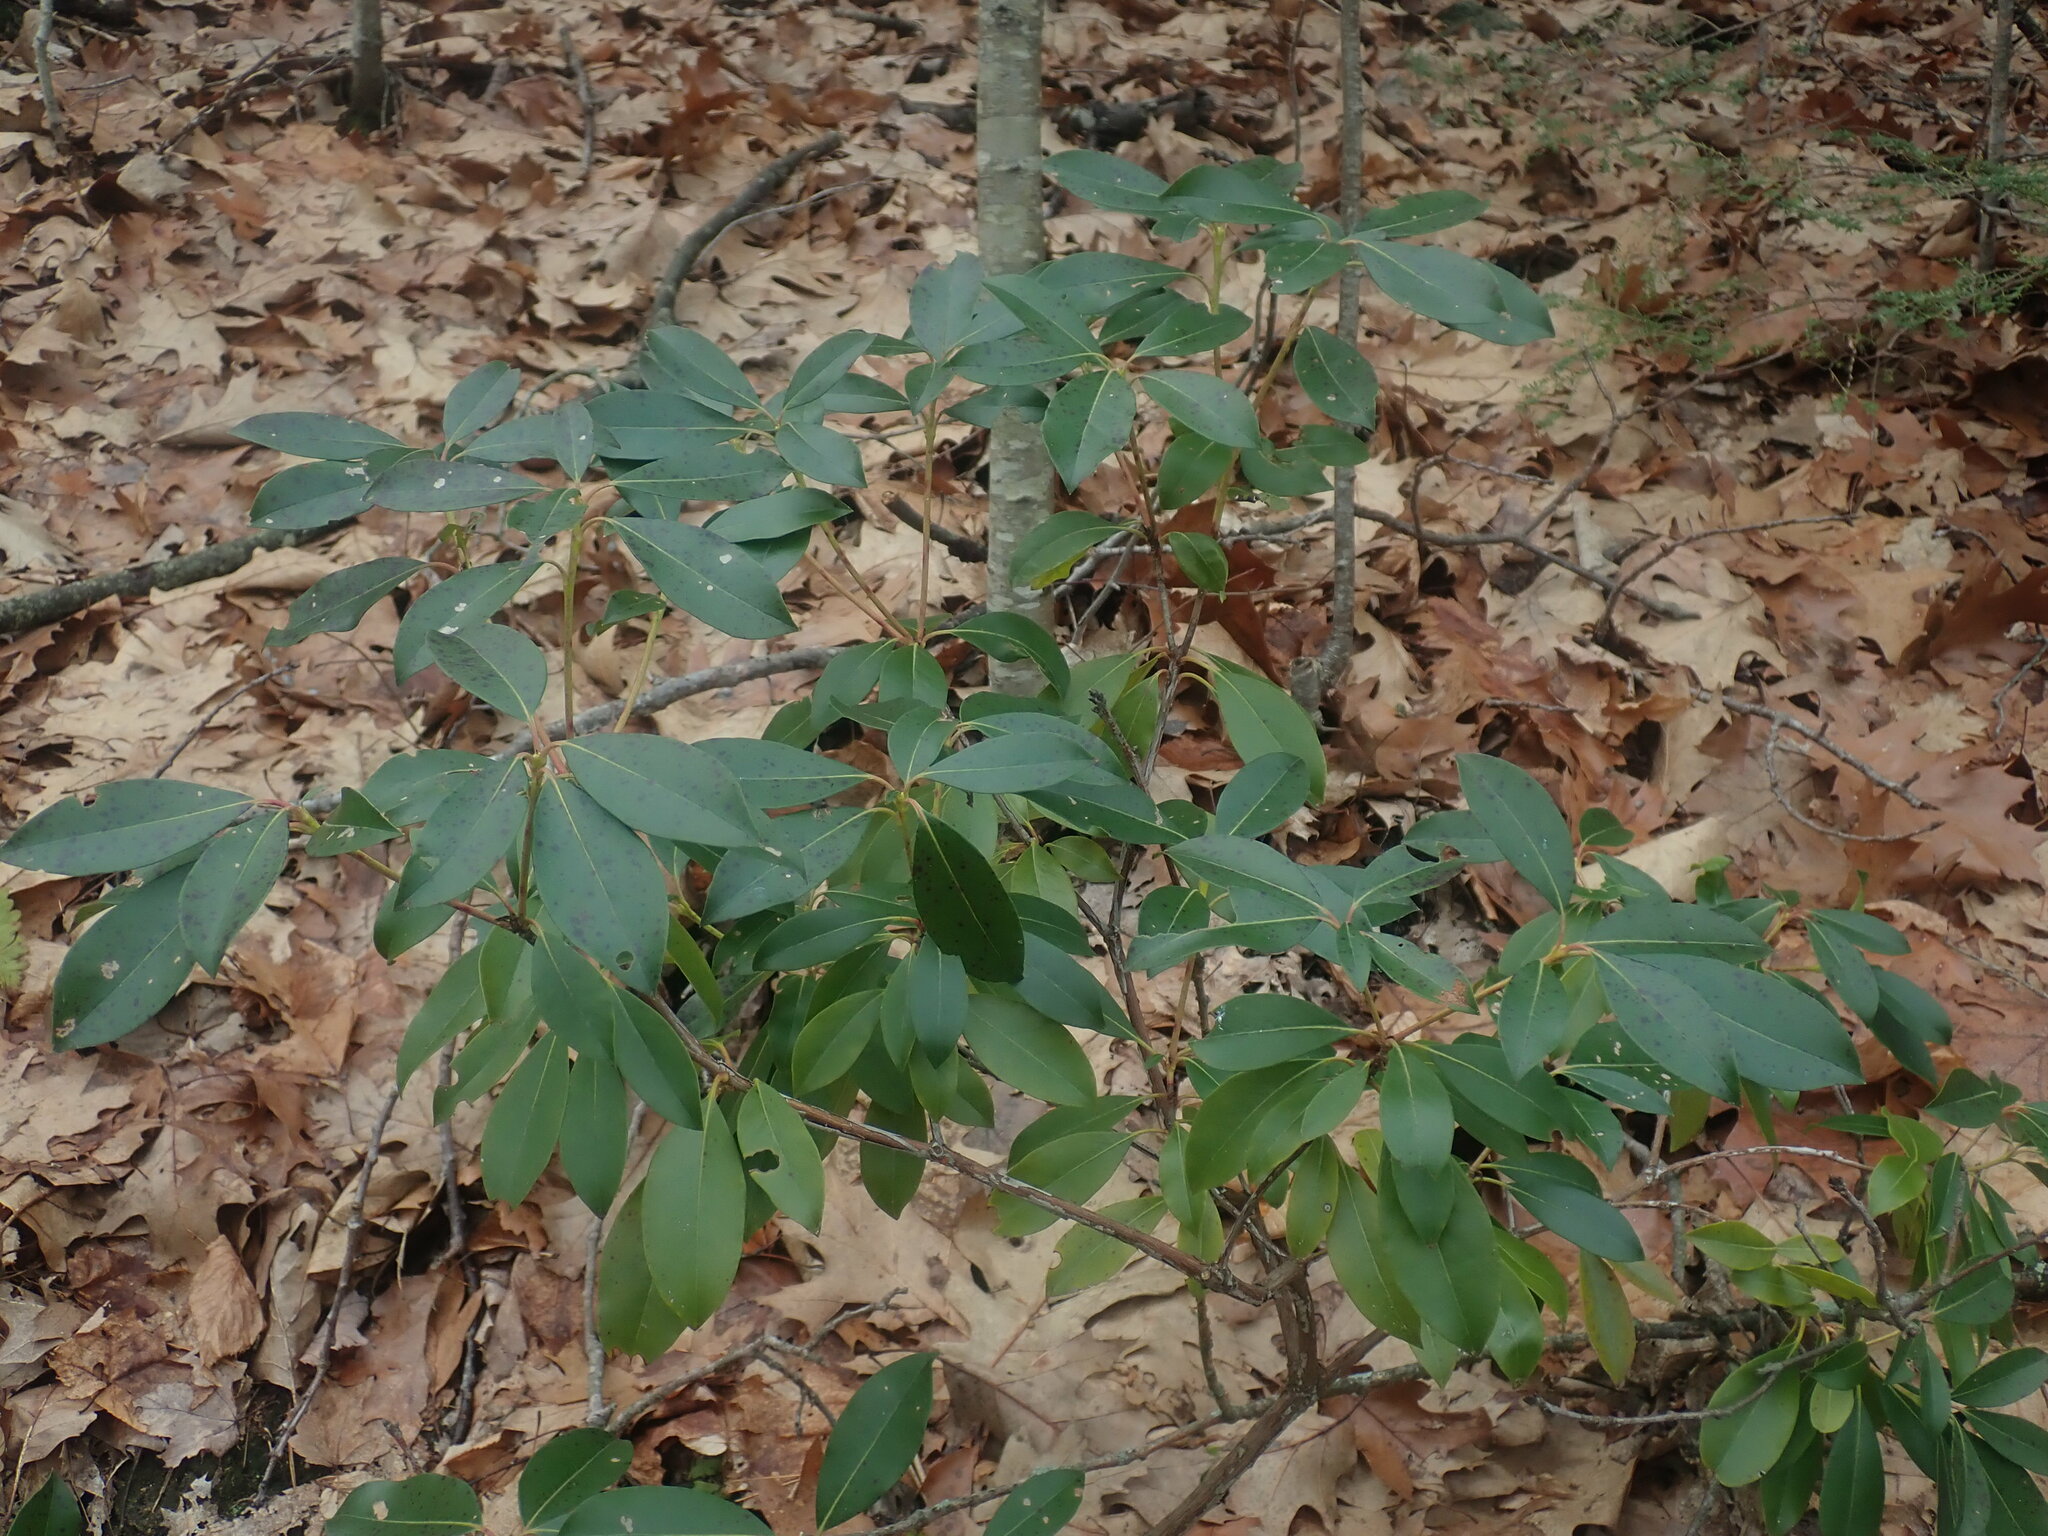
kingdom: Plantae
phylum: Tracheophyta
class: Magnoliopsida
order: Ericales
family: Ericaceae
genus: Kalmia
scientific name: Kalmia latifolia
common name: Mountain-laurel
